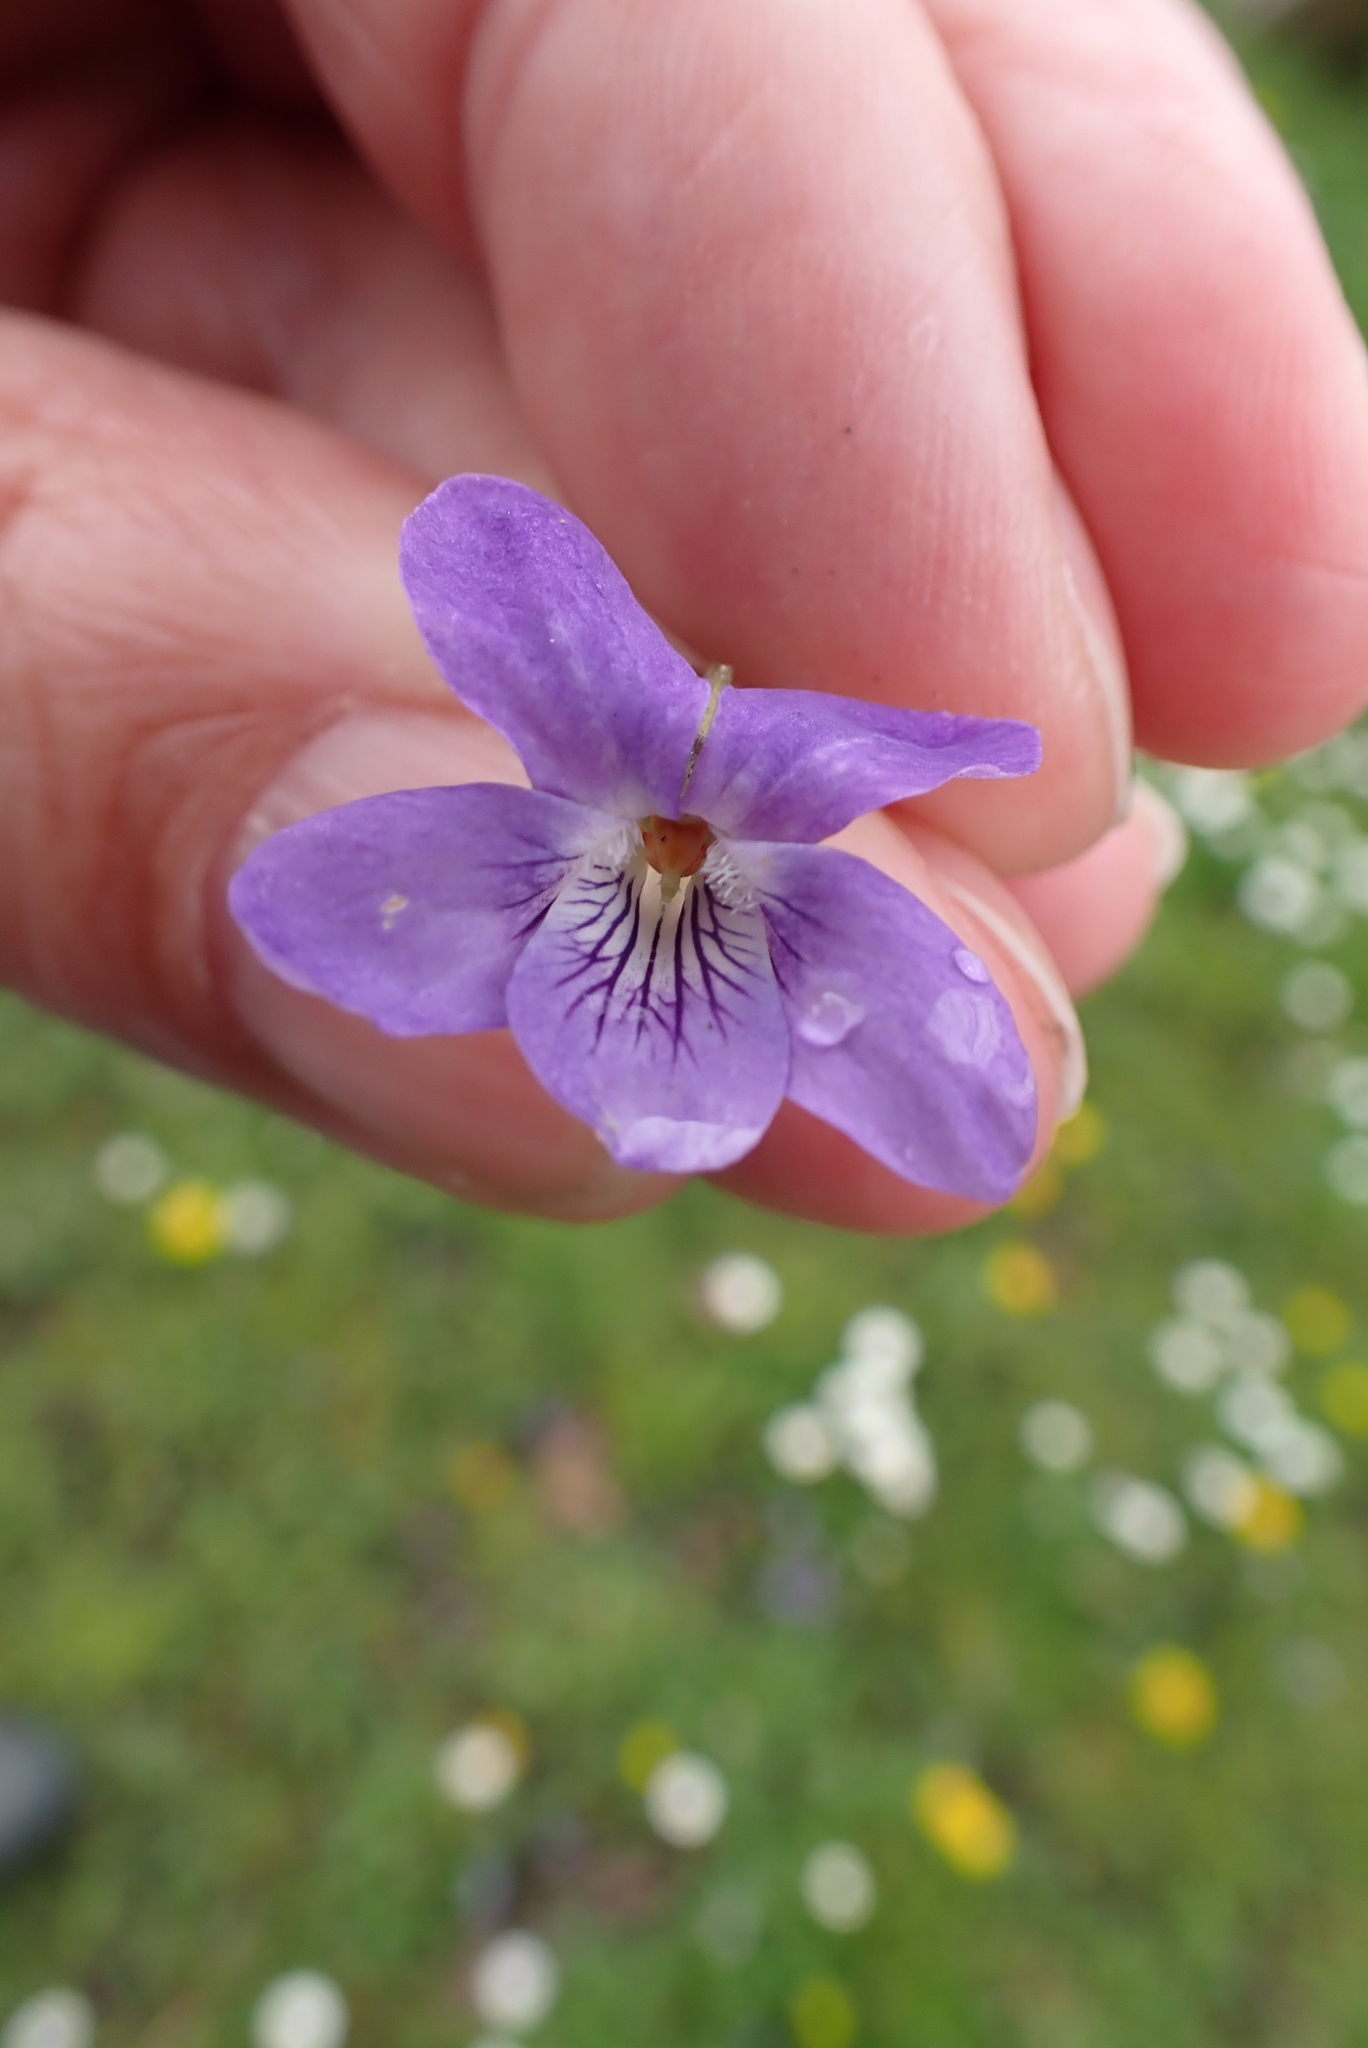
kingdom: Plantae
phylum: Tracheophyta
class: Magnoliopsida
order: Malpighiales
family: Violaceae
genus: Viola
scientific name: Viola riviniana
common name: Common dog-violet
